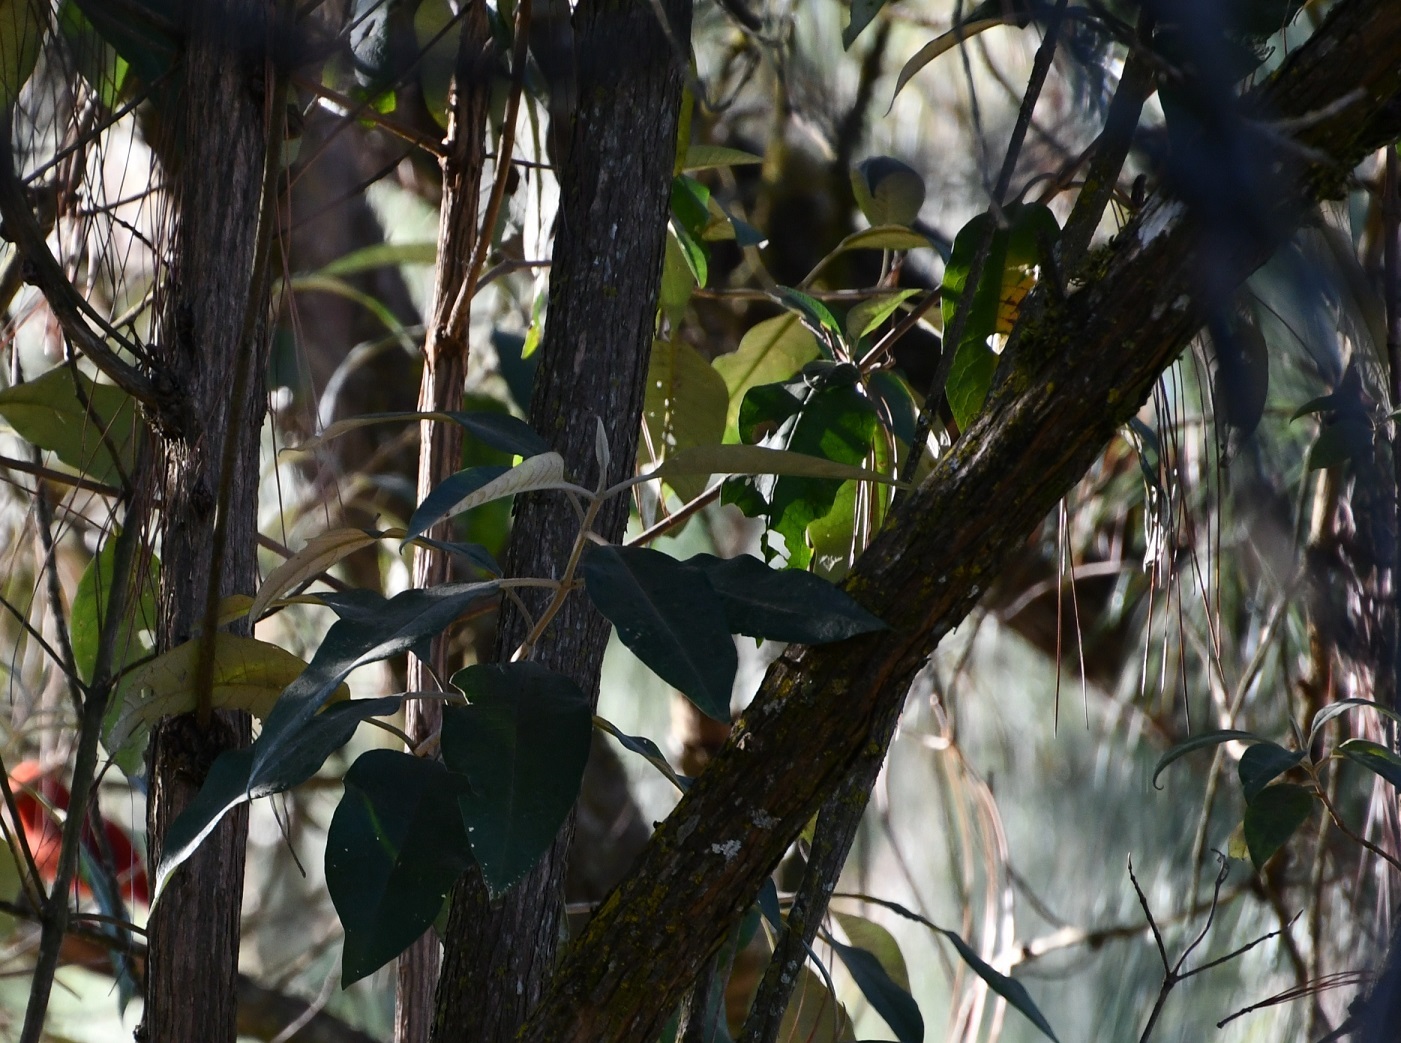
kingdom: Plantae
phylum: Tracheophyta
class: Magnoliopsida
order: Lamiales
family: Scrophulariaceae
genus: Buddleja
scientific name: Buddleja cordata
